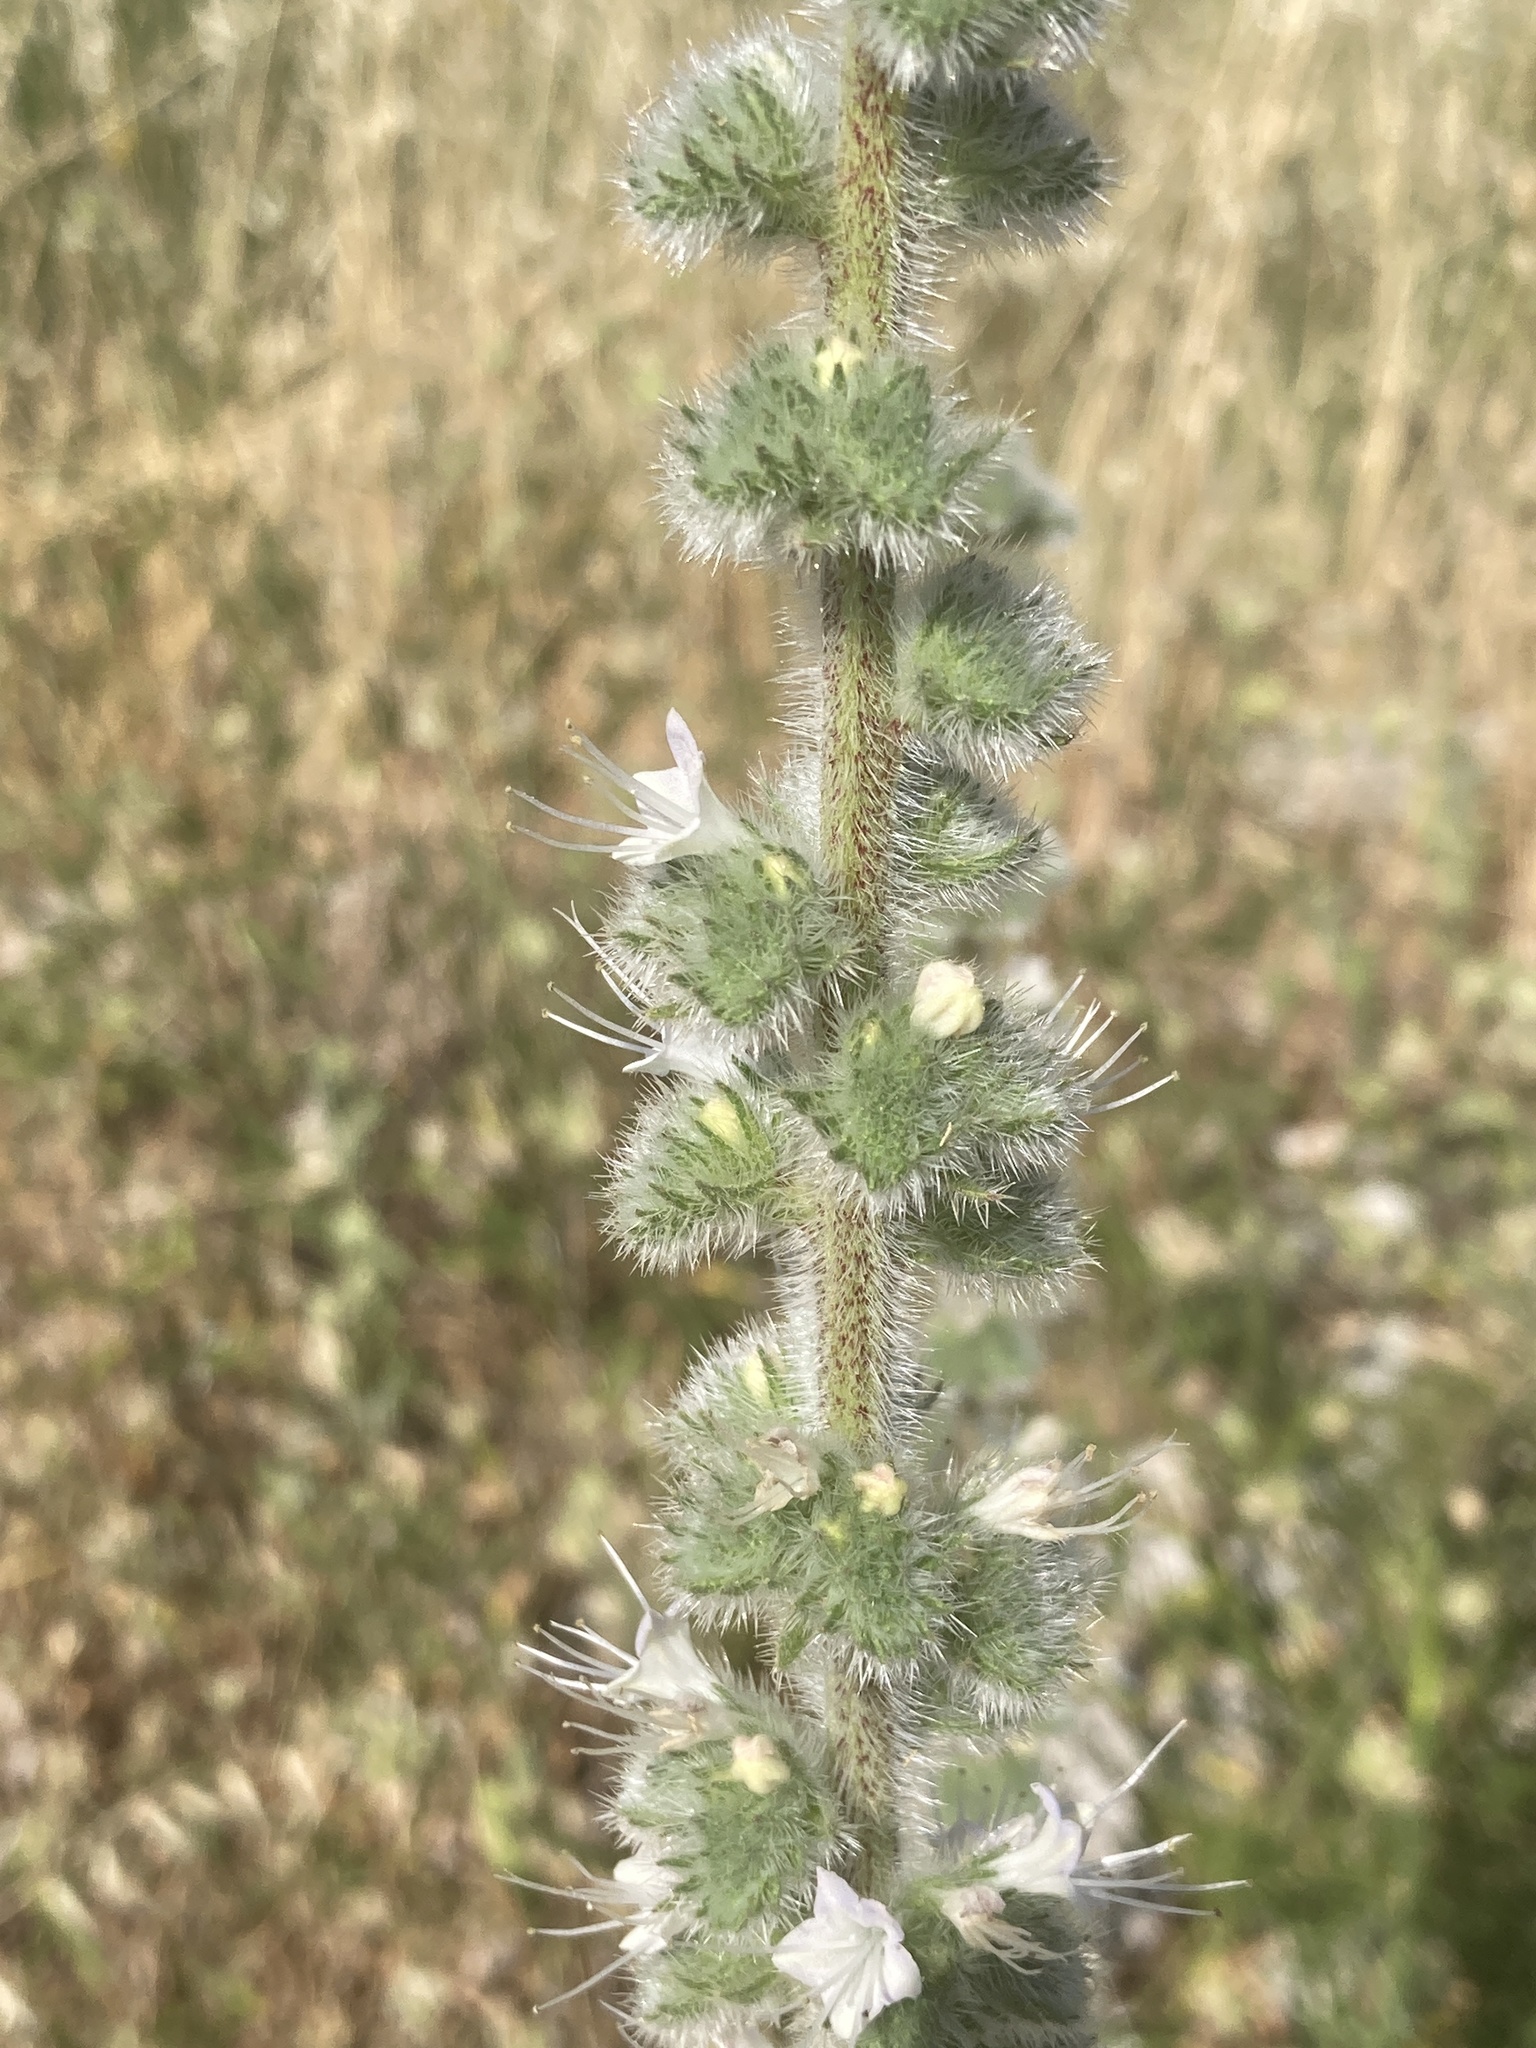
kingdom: Plantae
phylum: Tracheophyta
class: Magnoliopsida
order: Boraginales
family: Boraginaceae
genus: Echium
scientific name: Echium italicum
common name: Italian viper's bugloss
